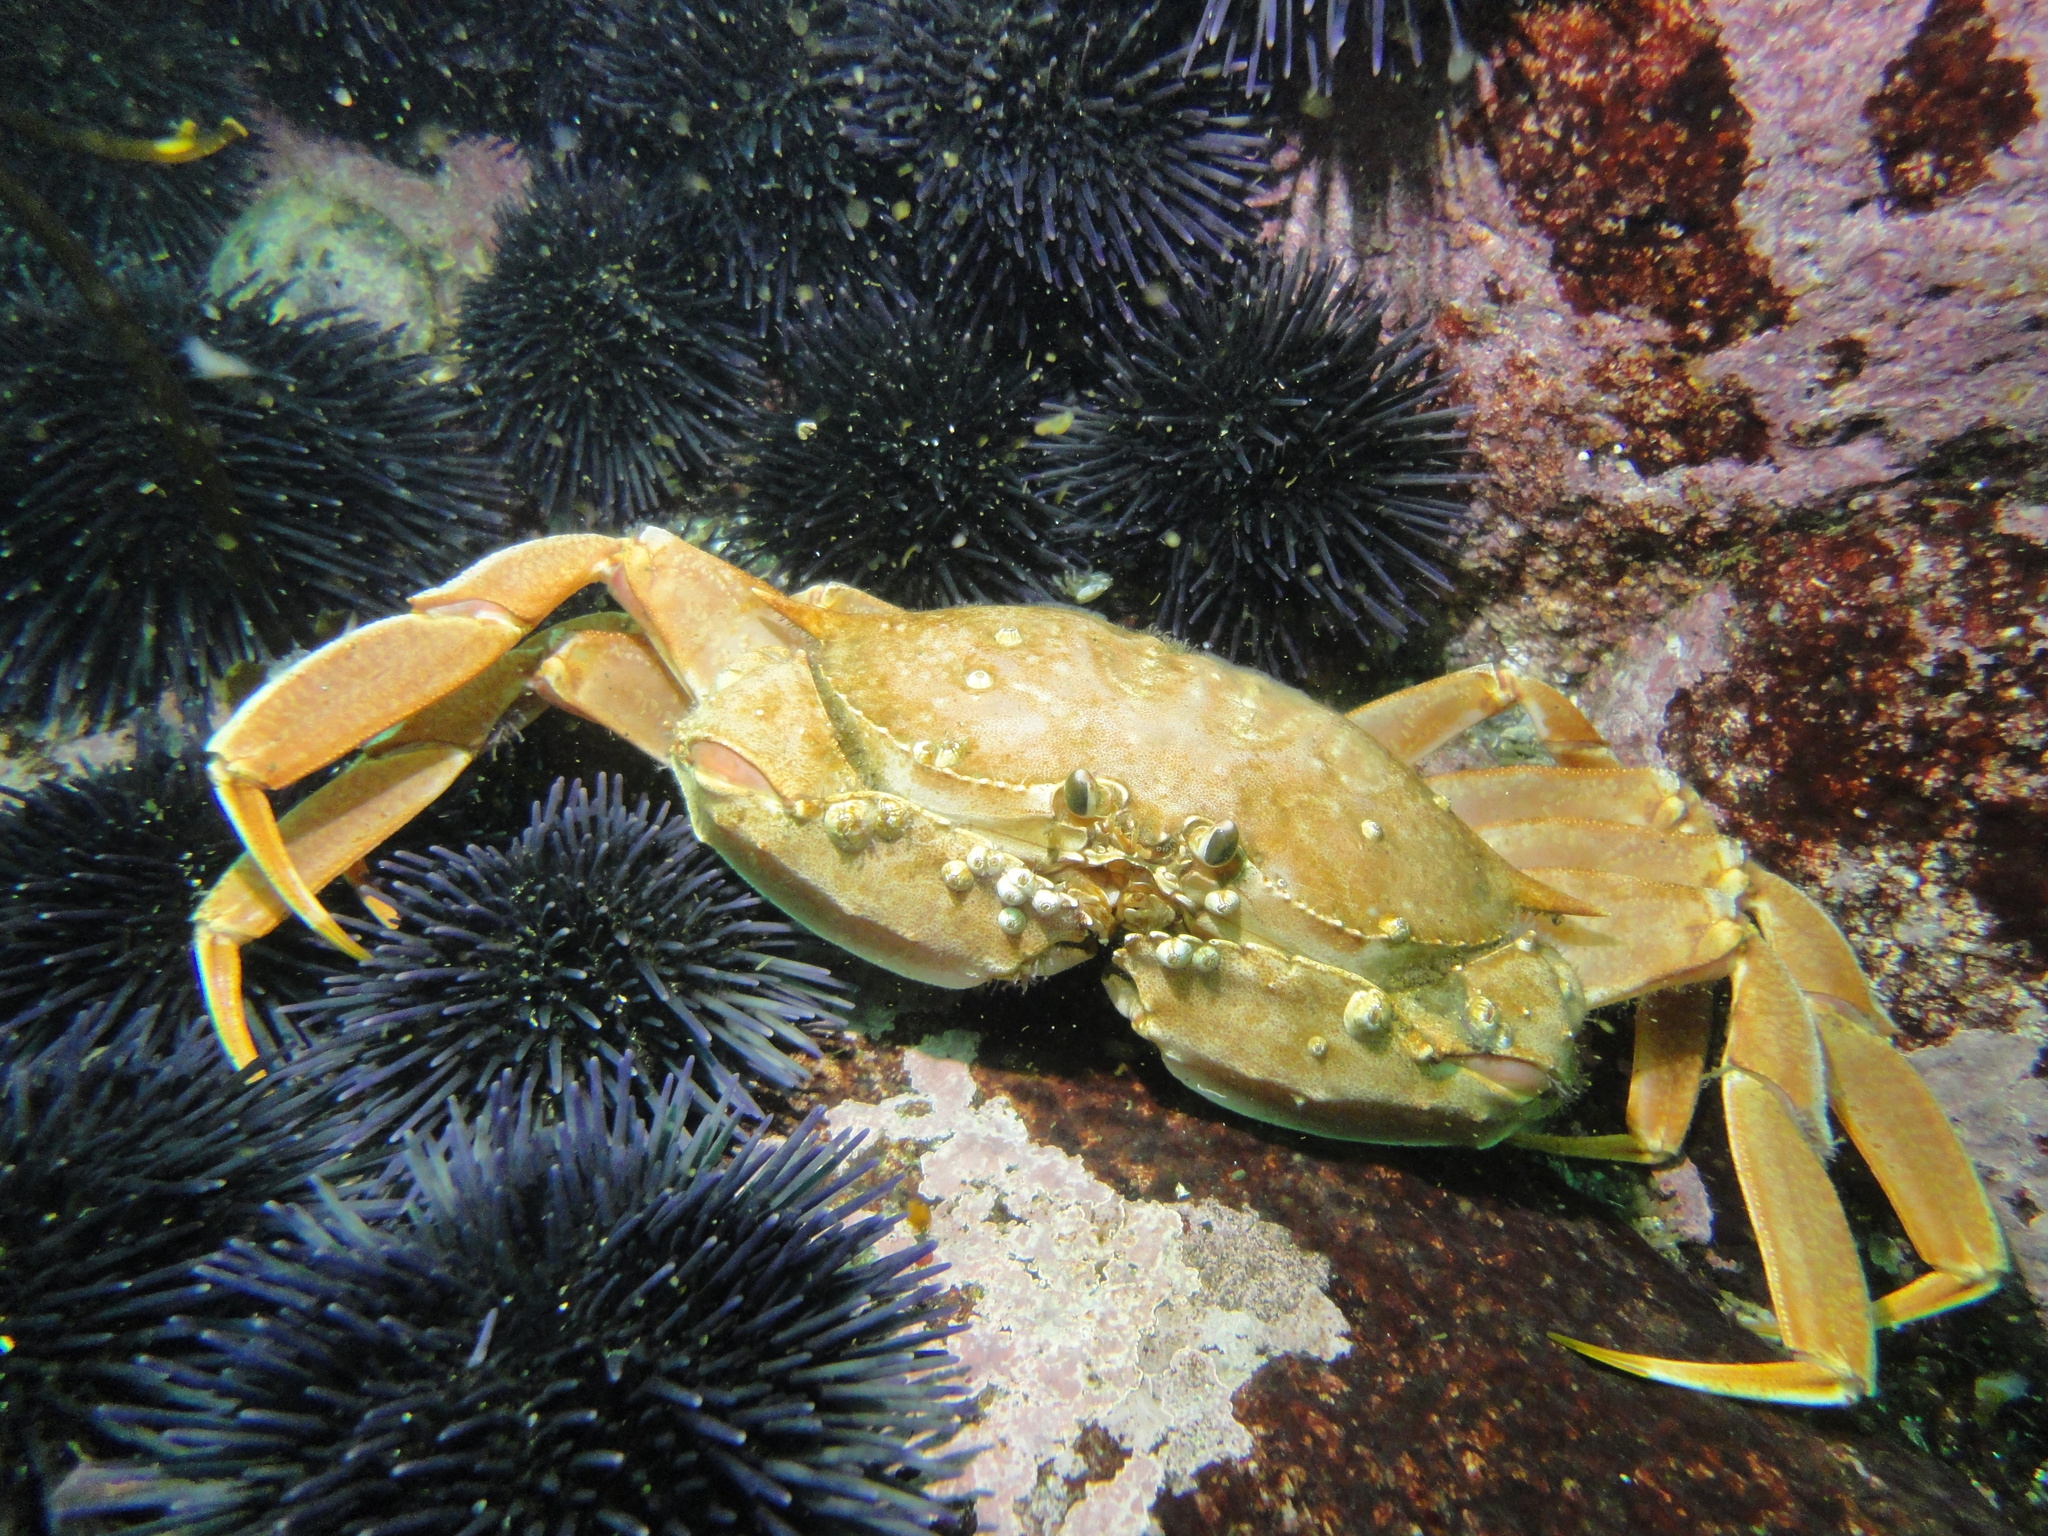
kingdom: Animalia
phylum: Arthropoda
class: Malacostraca
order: Decapoda
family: Calappidae
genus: Platymera
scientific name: Platymera gaudichaudii
